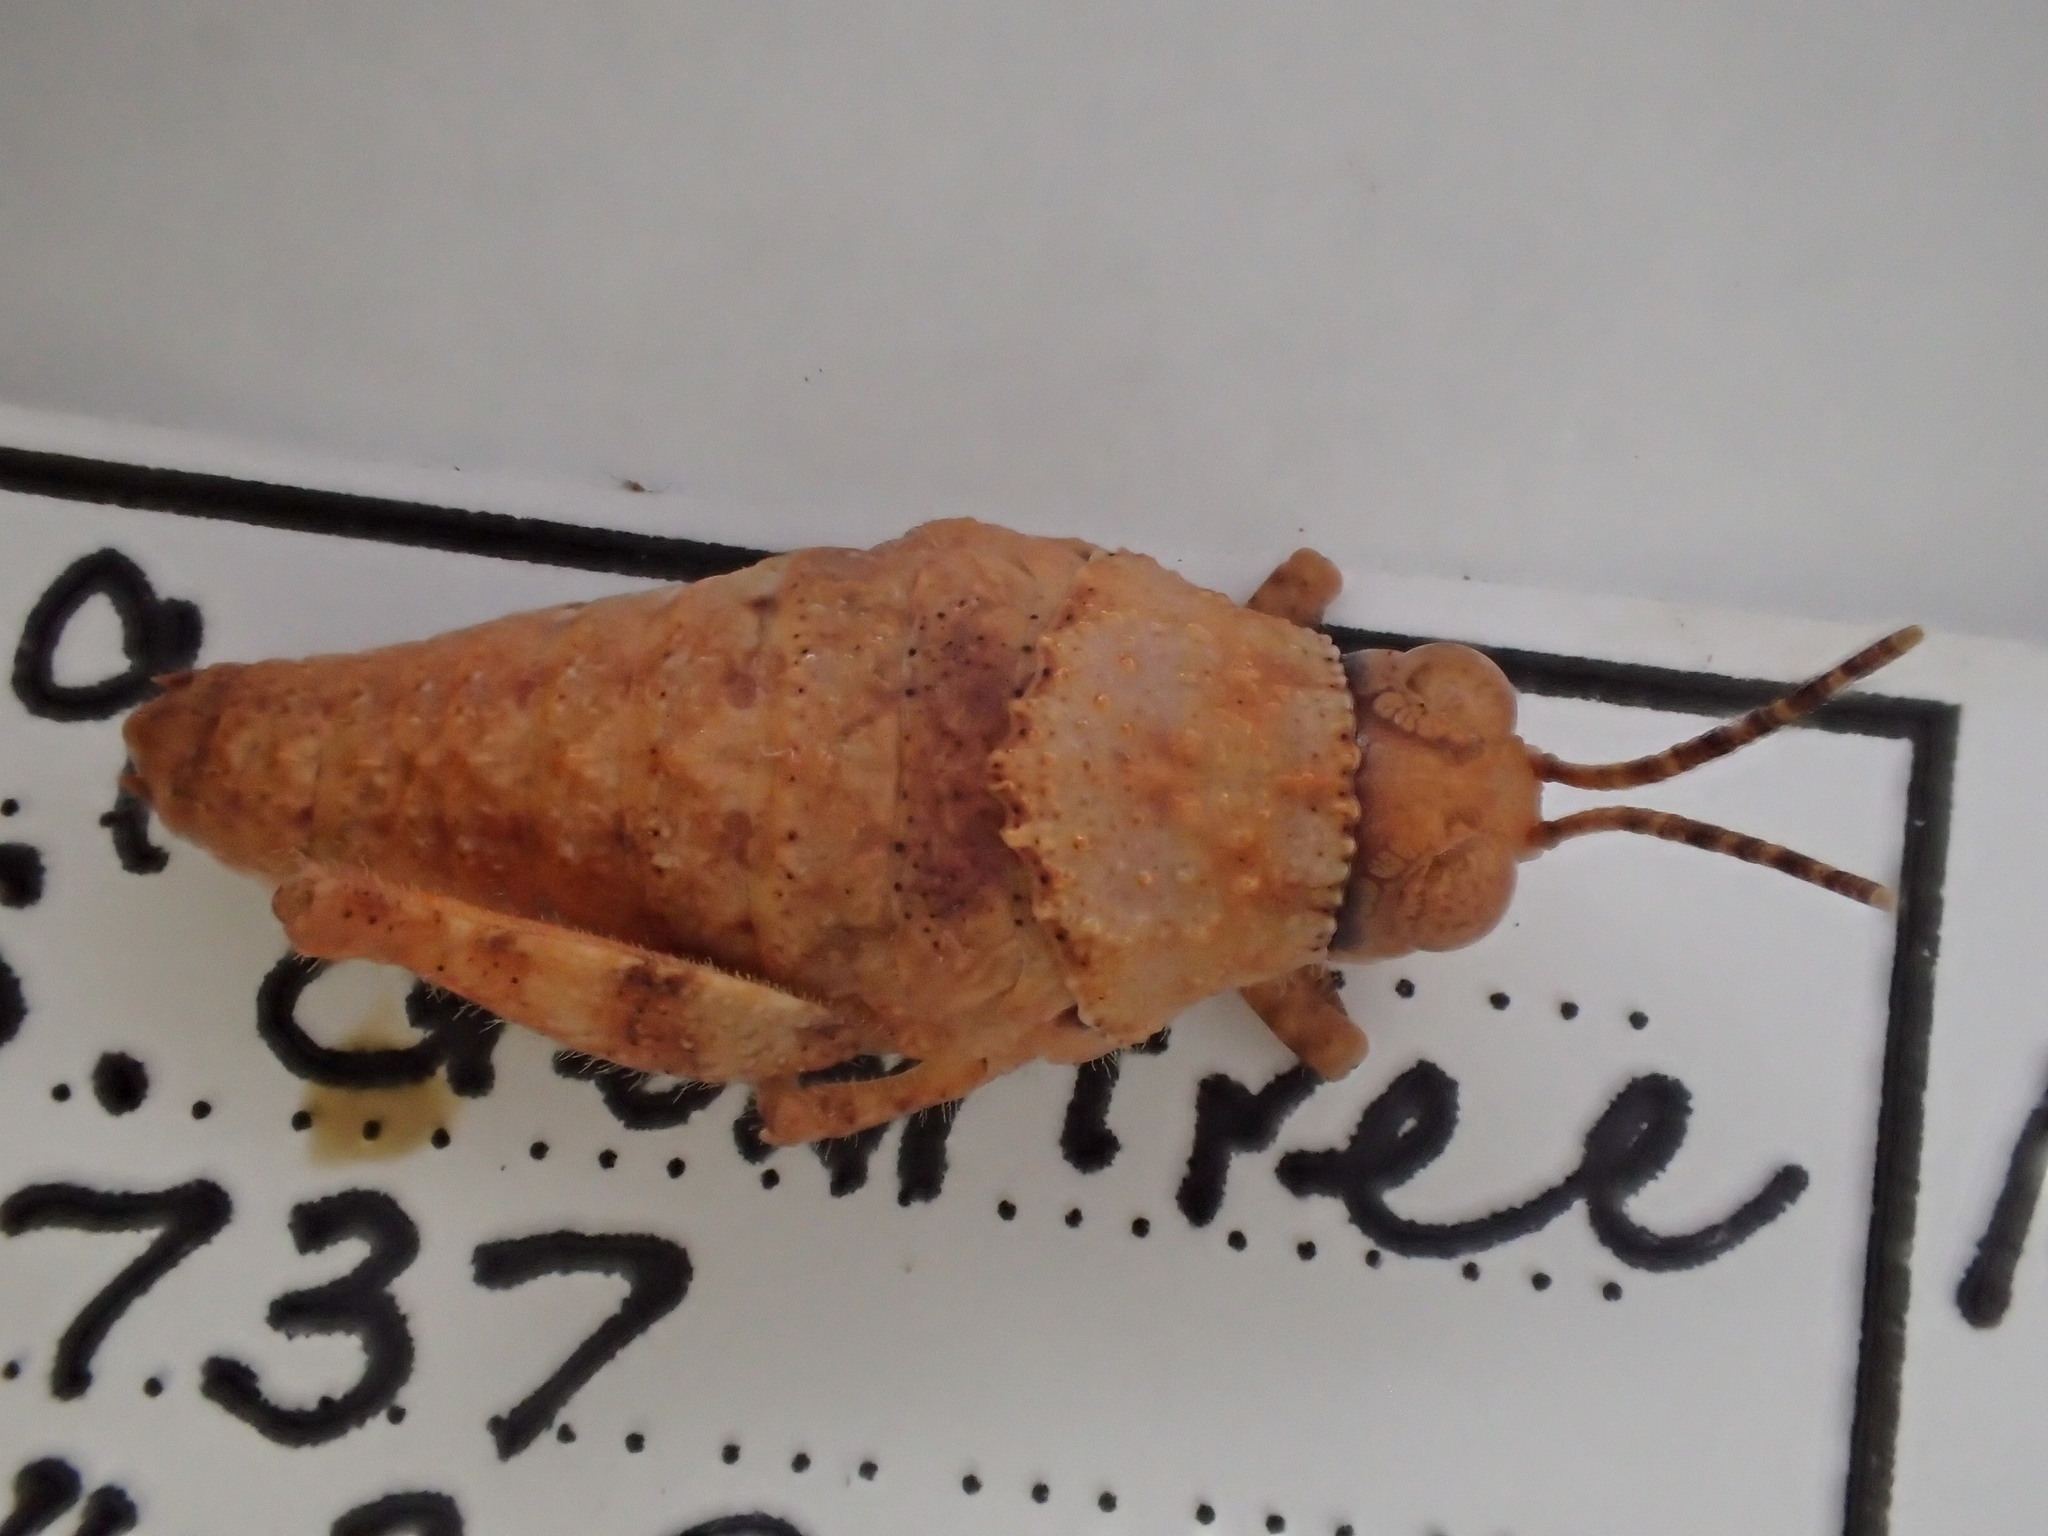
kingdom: Animalia
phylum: Arthropoda
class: Insecta
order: Orthoptera
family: Acrididae
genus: Buforania
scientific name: Buforania crassa
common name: Common toadhopper
